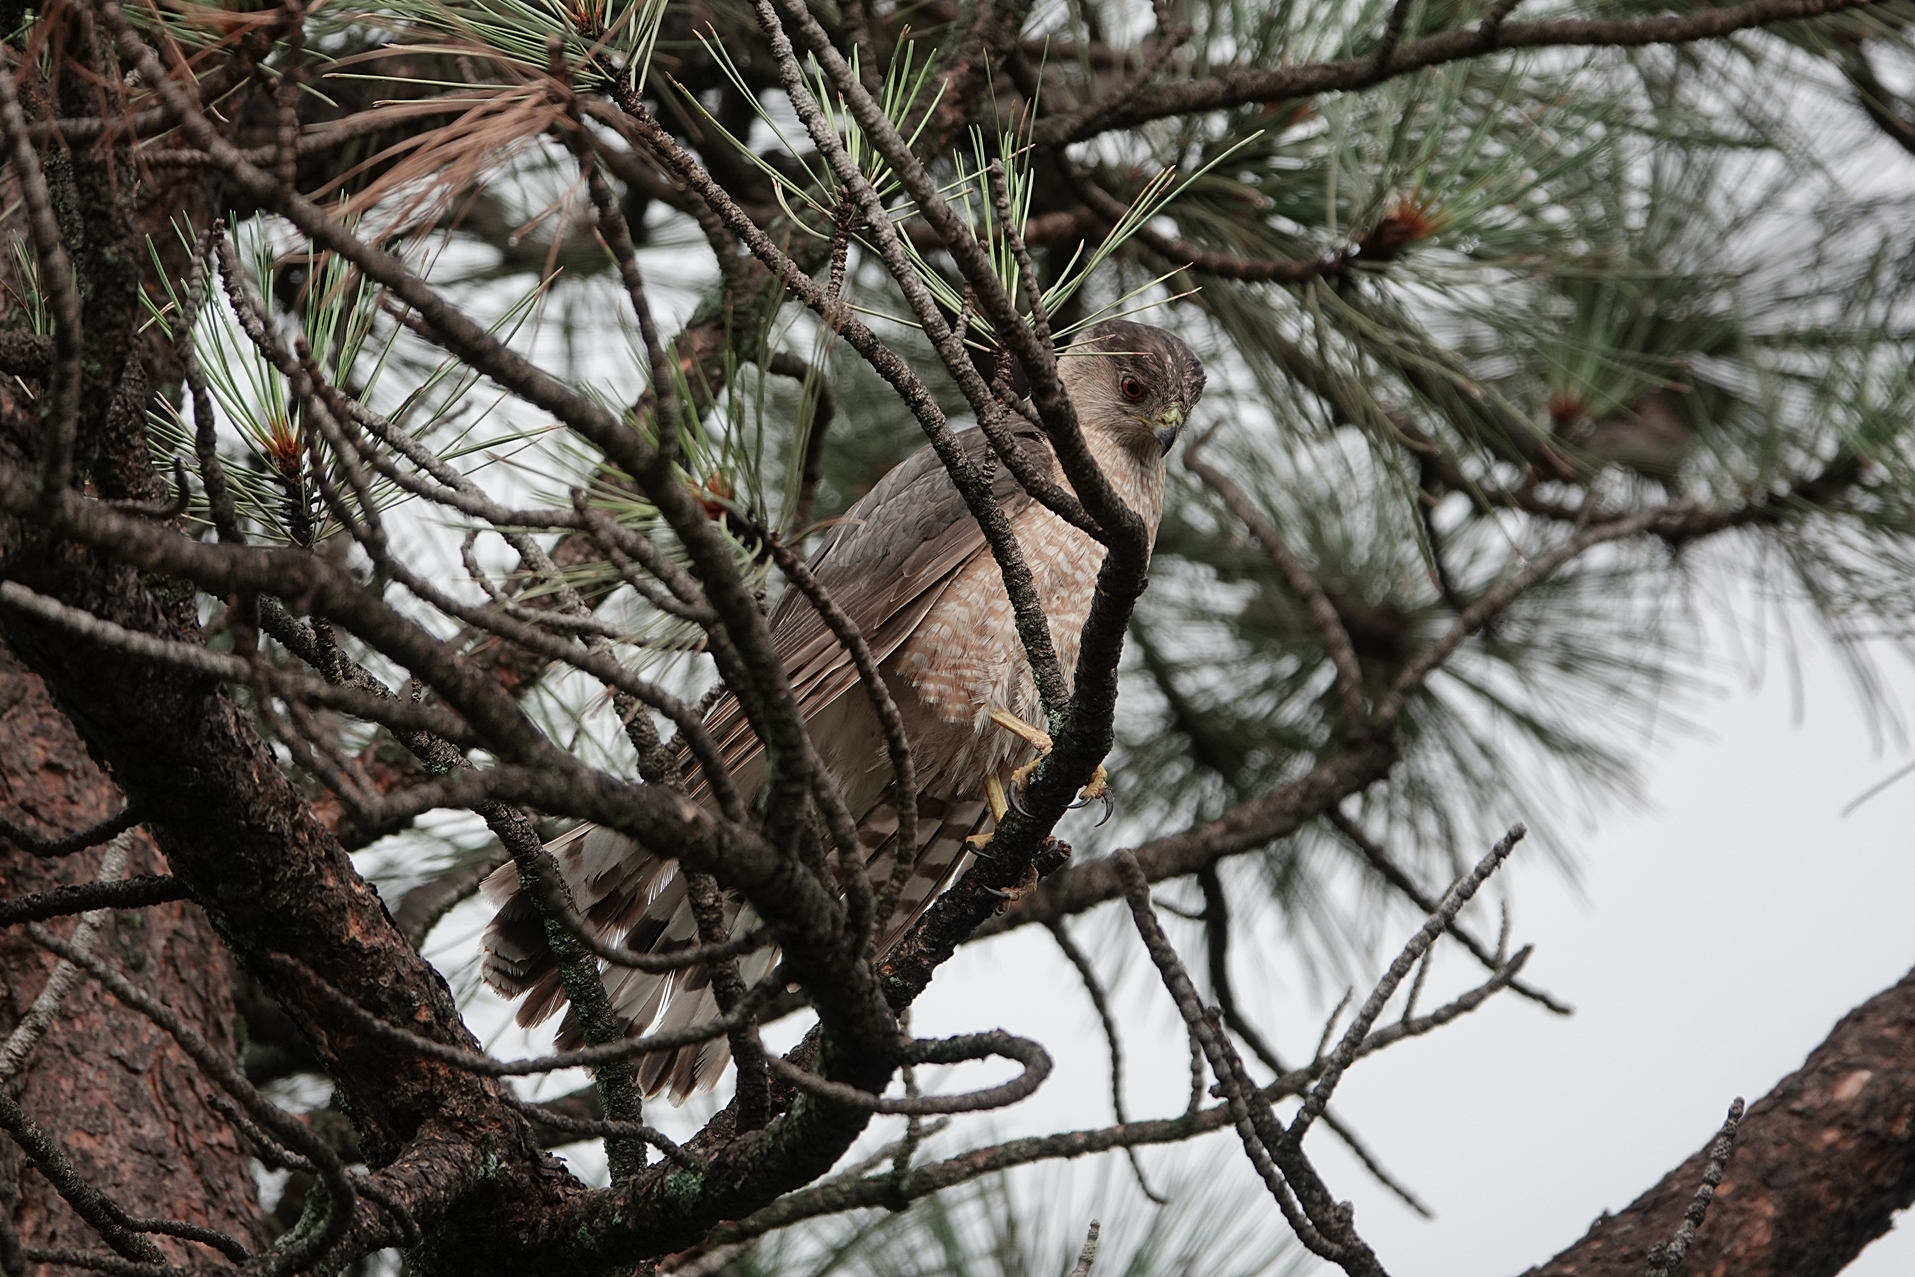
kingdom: Animalia
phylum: Chordata
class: Aves
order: Accipitriformes
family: Accipitridae
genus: Accipiter
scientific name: Accipiter cooperii
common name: Cooper's hawk
